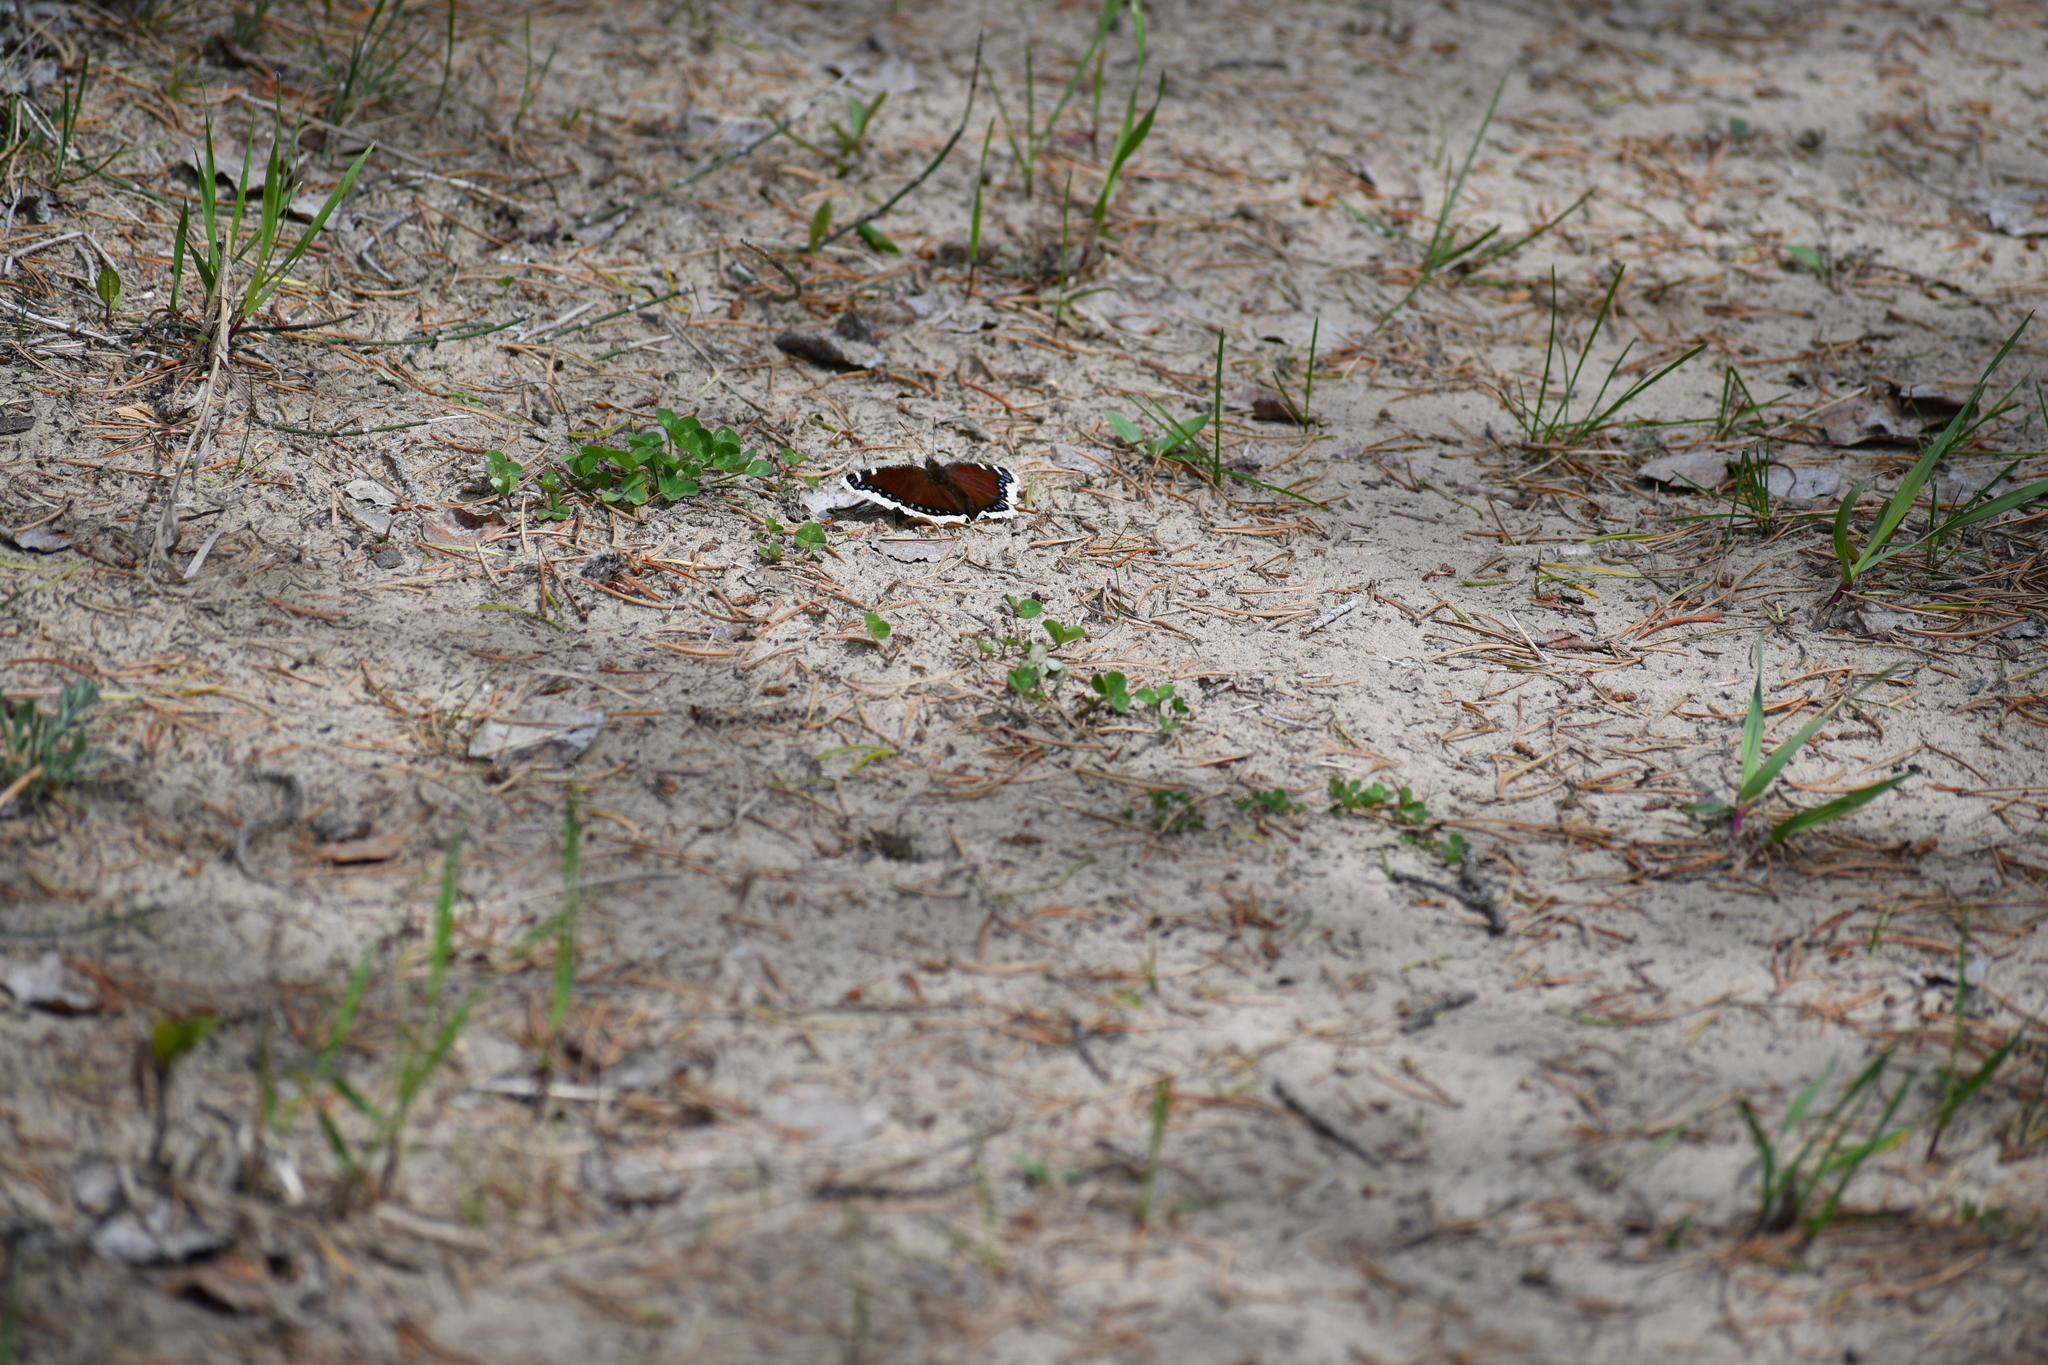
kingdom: Animalia
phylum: Arthropoda
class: Insecta
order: Lepidoptera
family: Nymphalidae
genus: Nymphalis
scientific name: Nymphalis antiopa
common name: Camberwell beauty
